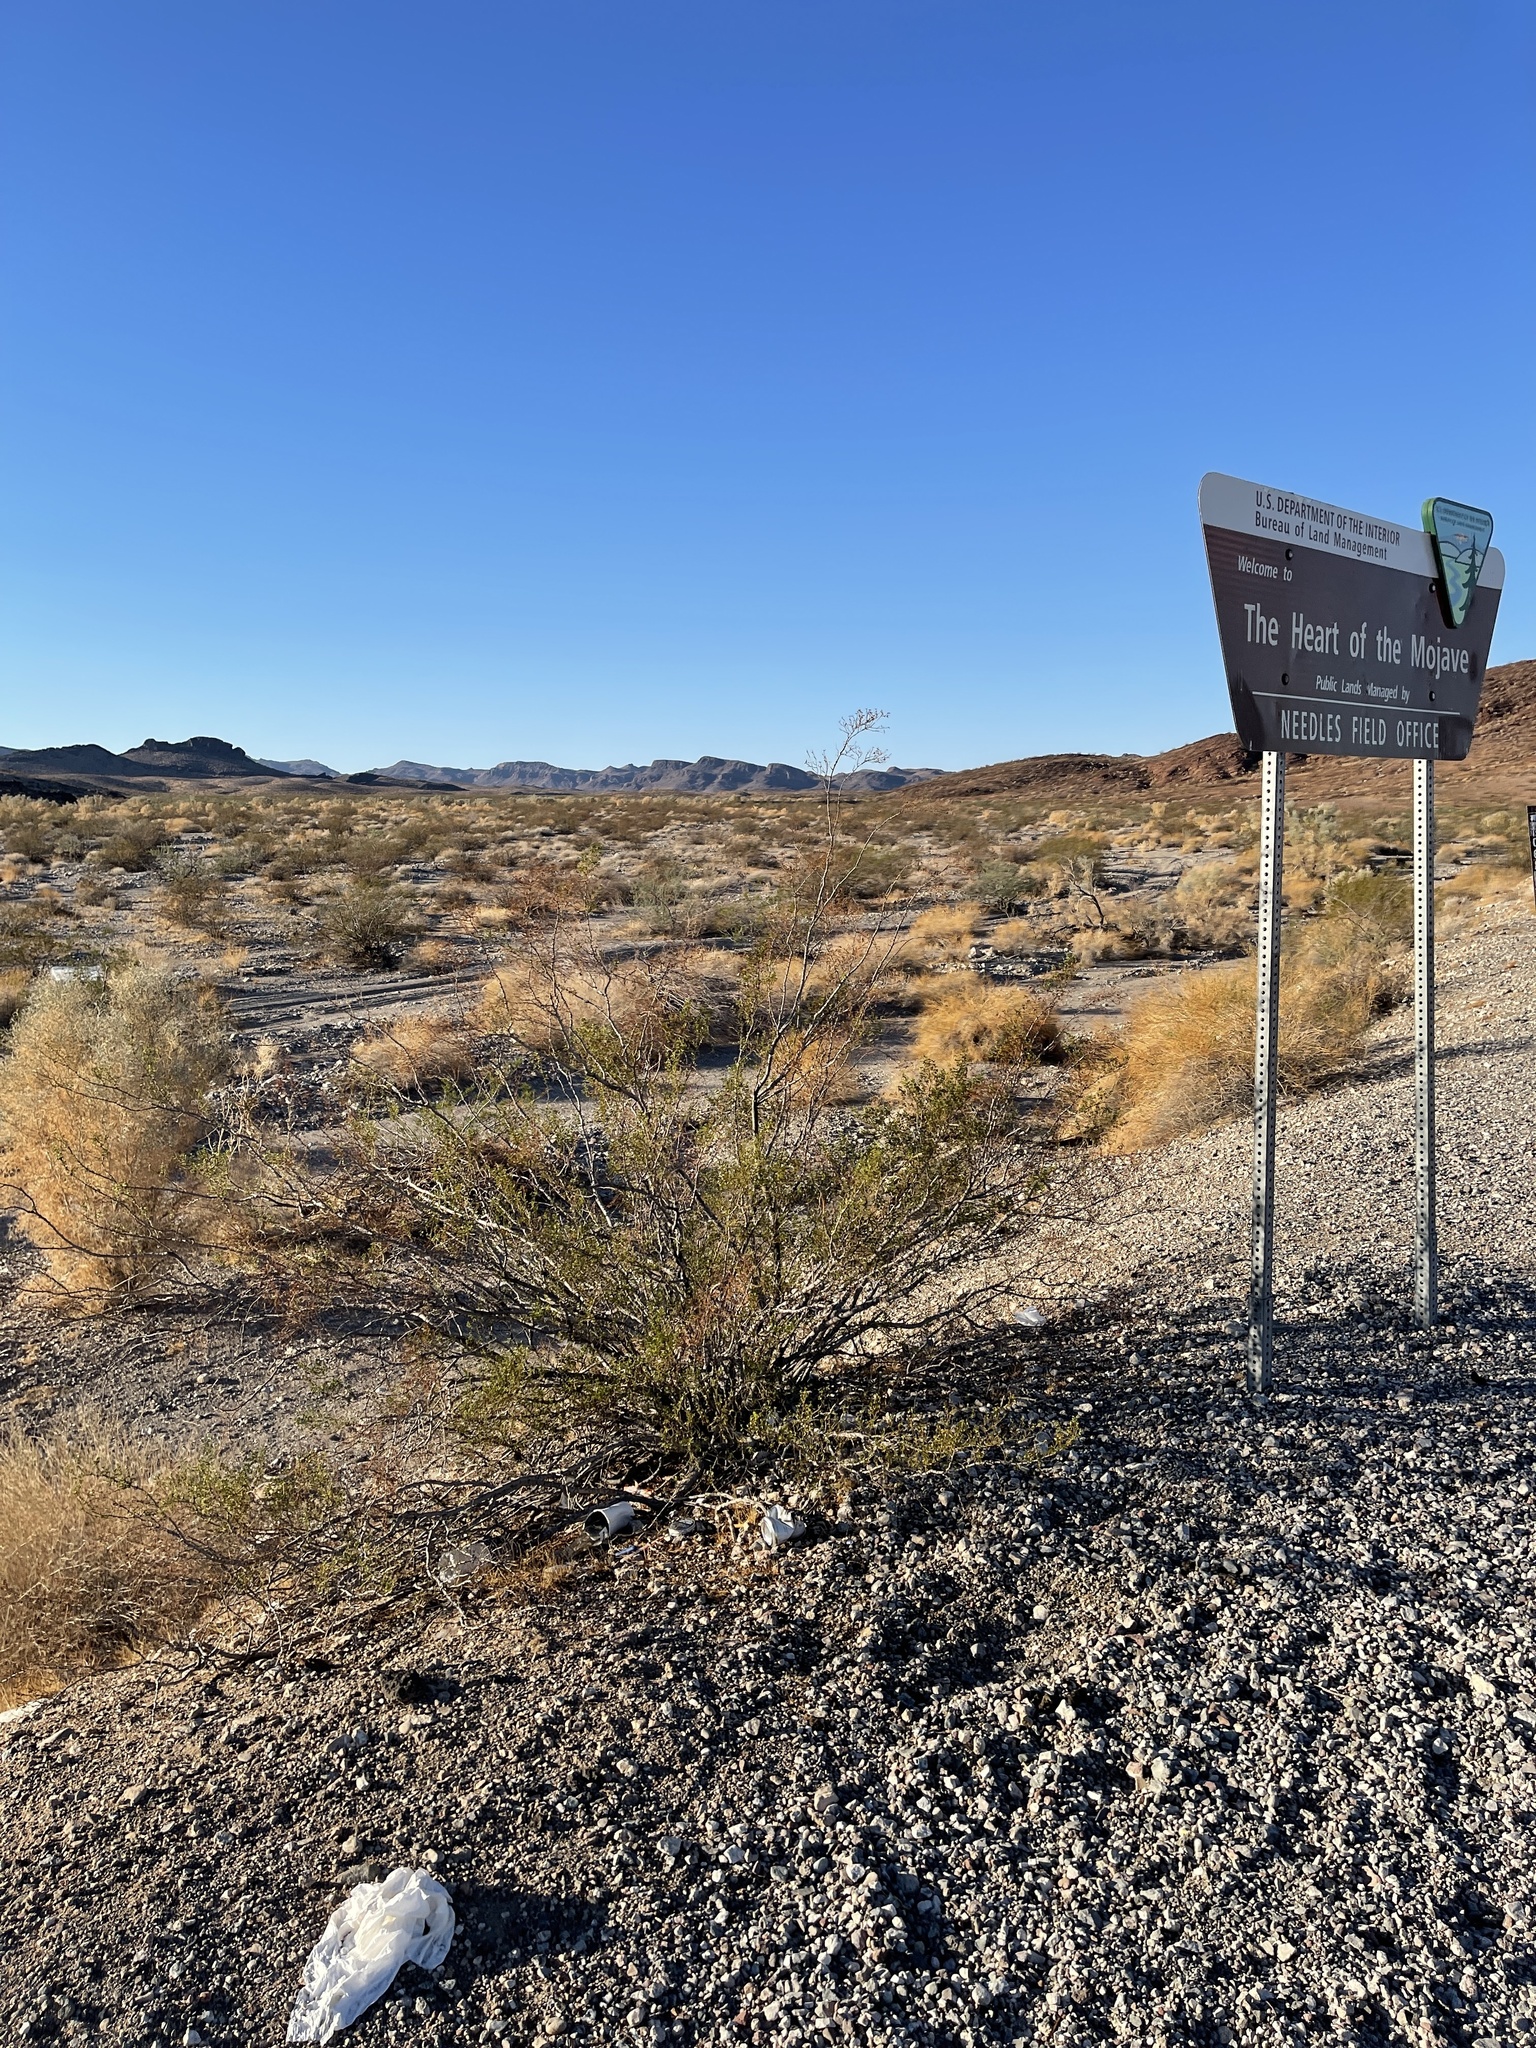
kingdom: Plantae
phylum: Tracheophyta
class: Magnoliopsida
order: Zygophyllales
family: Zygophyllaceae
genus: Larrea
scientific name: Larrea tridentata
